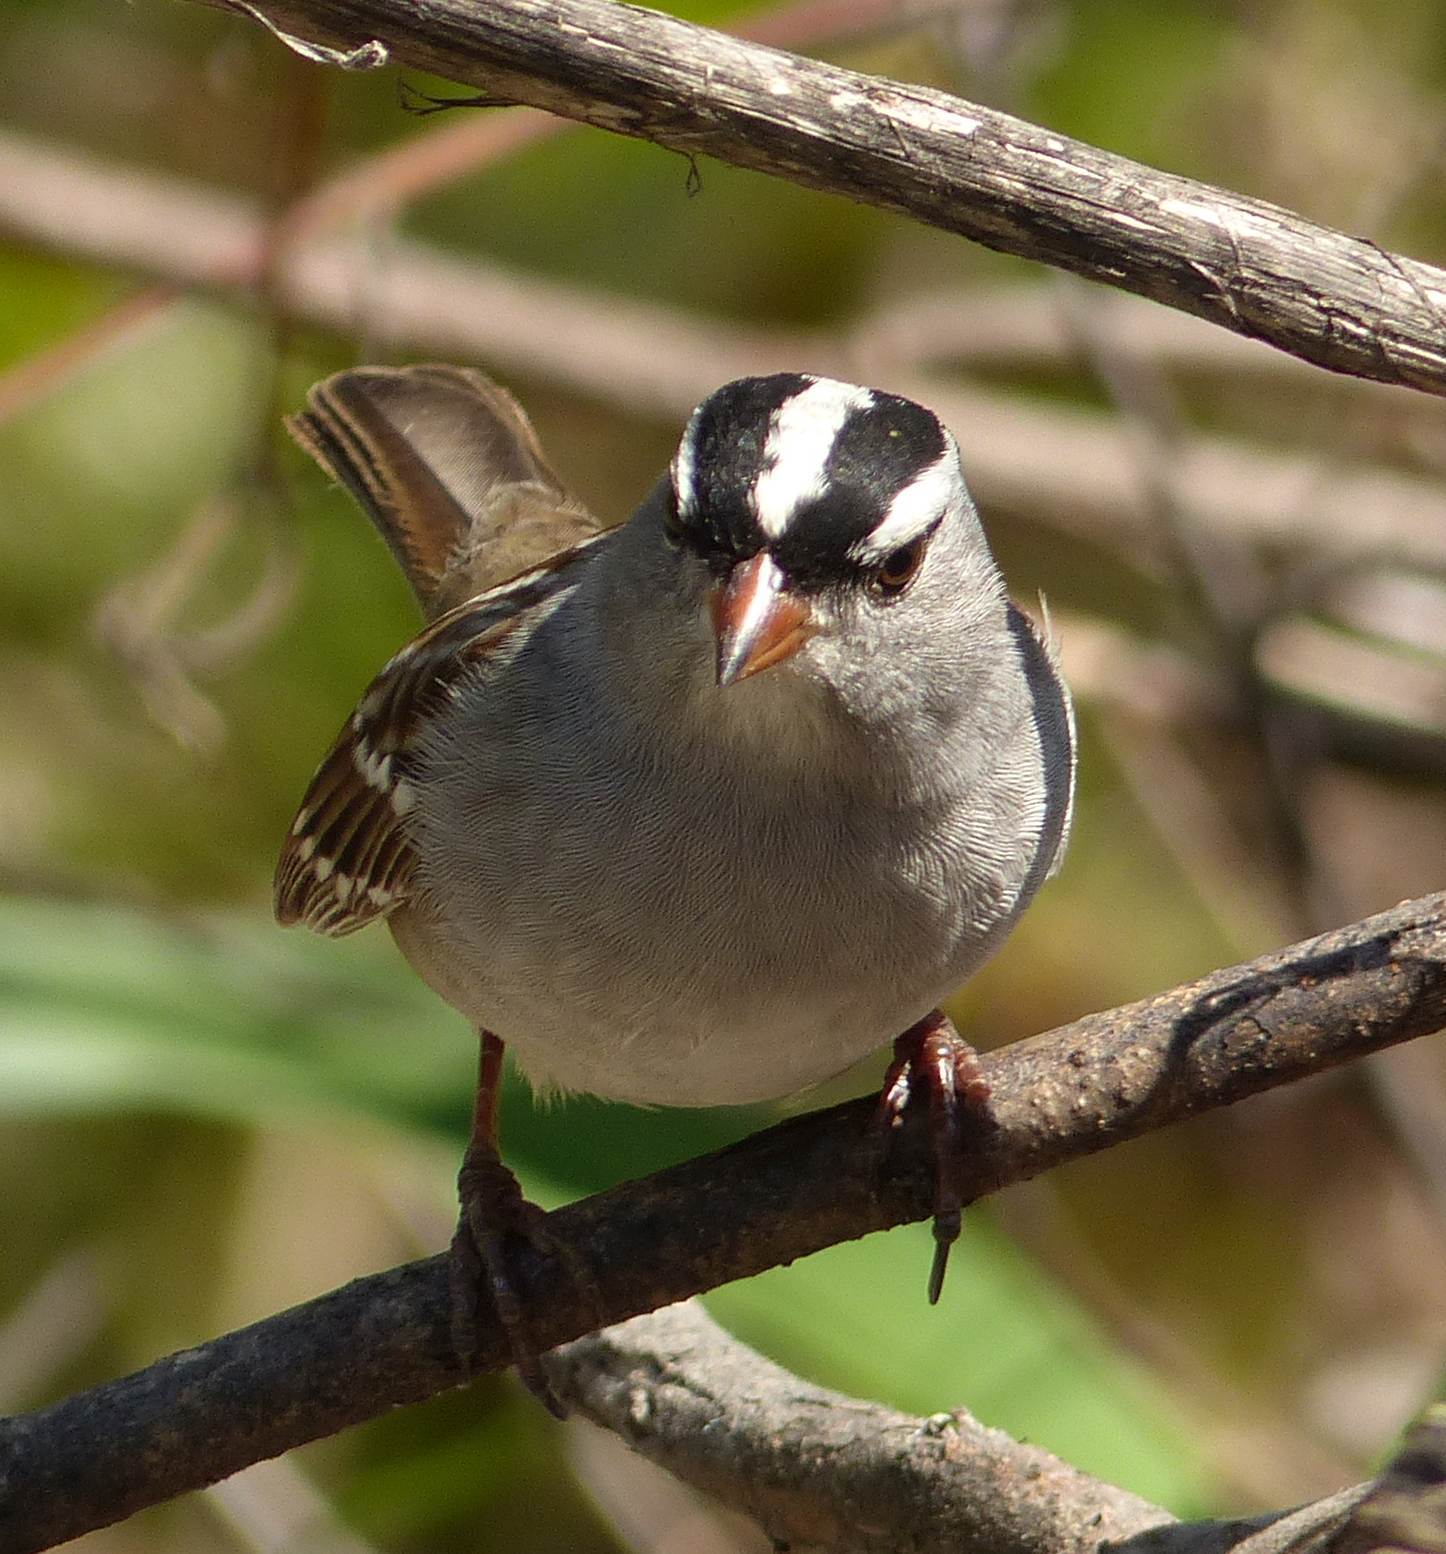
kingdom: Animalia
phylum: Chordata
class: Aves
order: Passeriformes
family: Passerellidae
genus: Zonotrichia
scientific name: Zonotrichia leucophrys
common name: White-crowned sparrow
